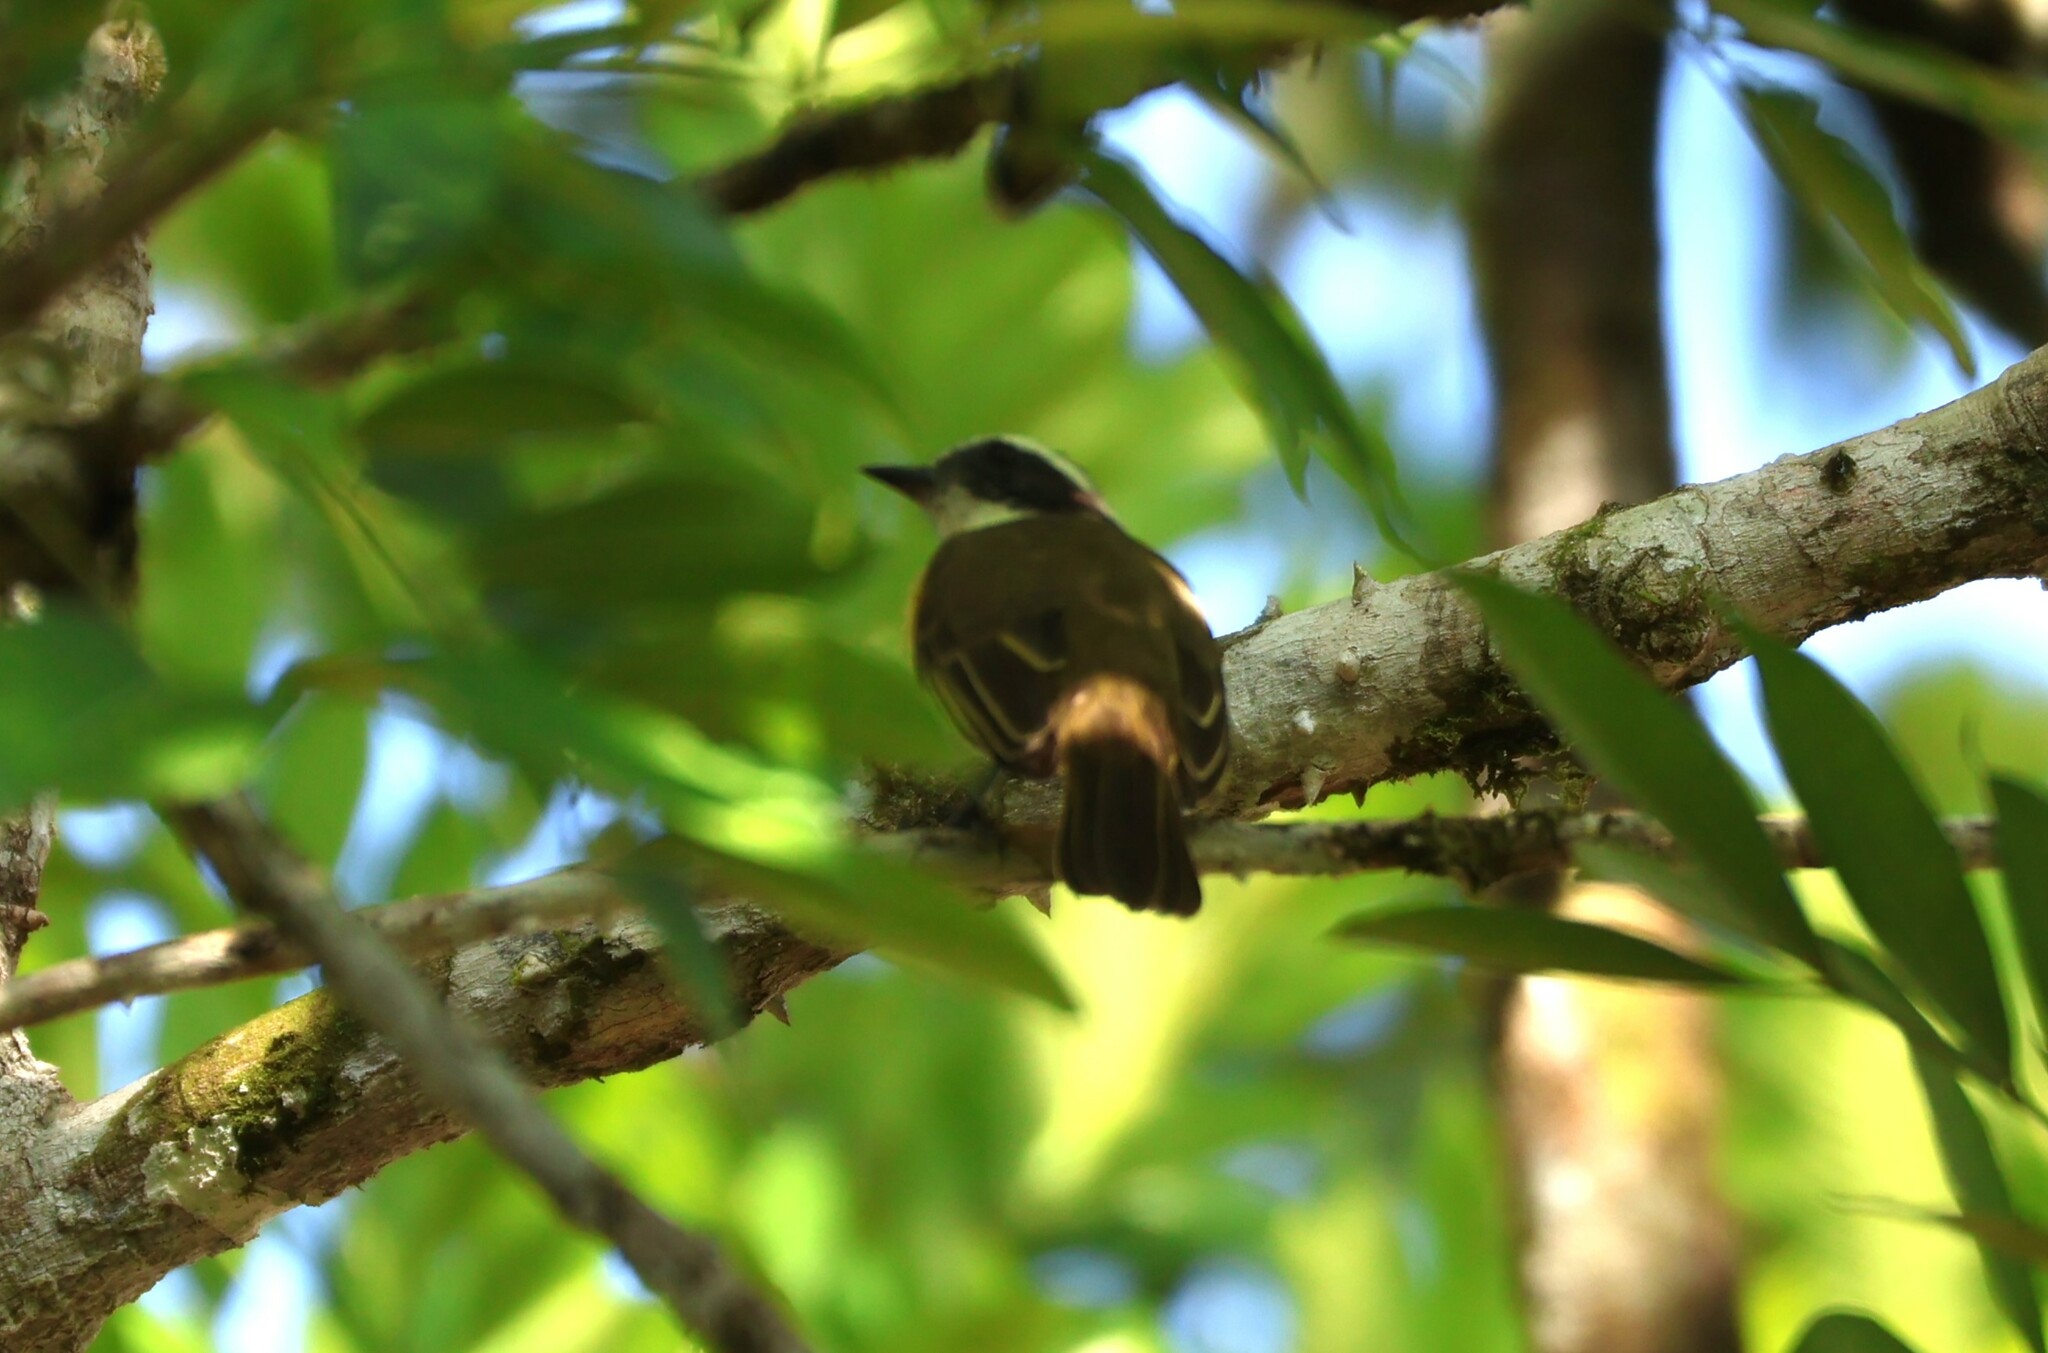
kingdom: Animalia
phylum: Chordata
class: Aves
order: Passeriformes
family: Tyrannidae
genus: Myiozetetes
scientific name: Myiozetetes similis
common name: Social flycatcher
